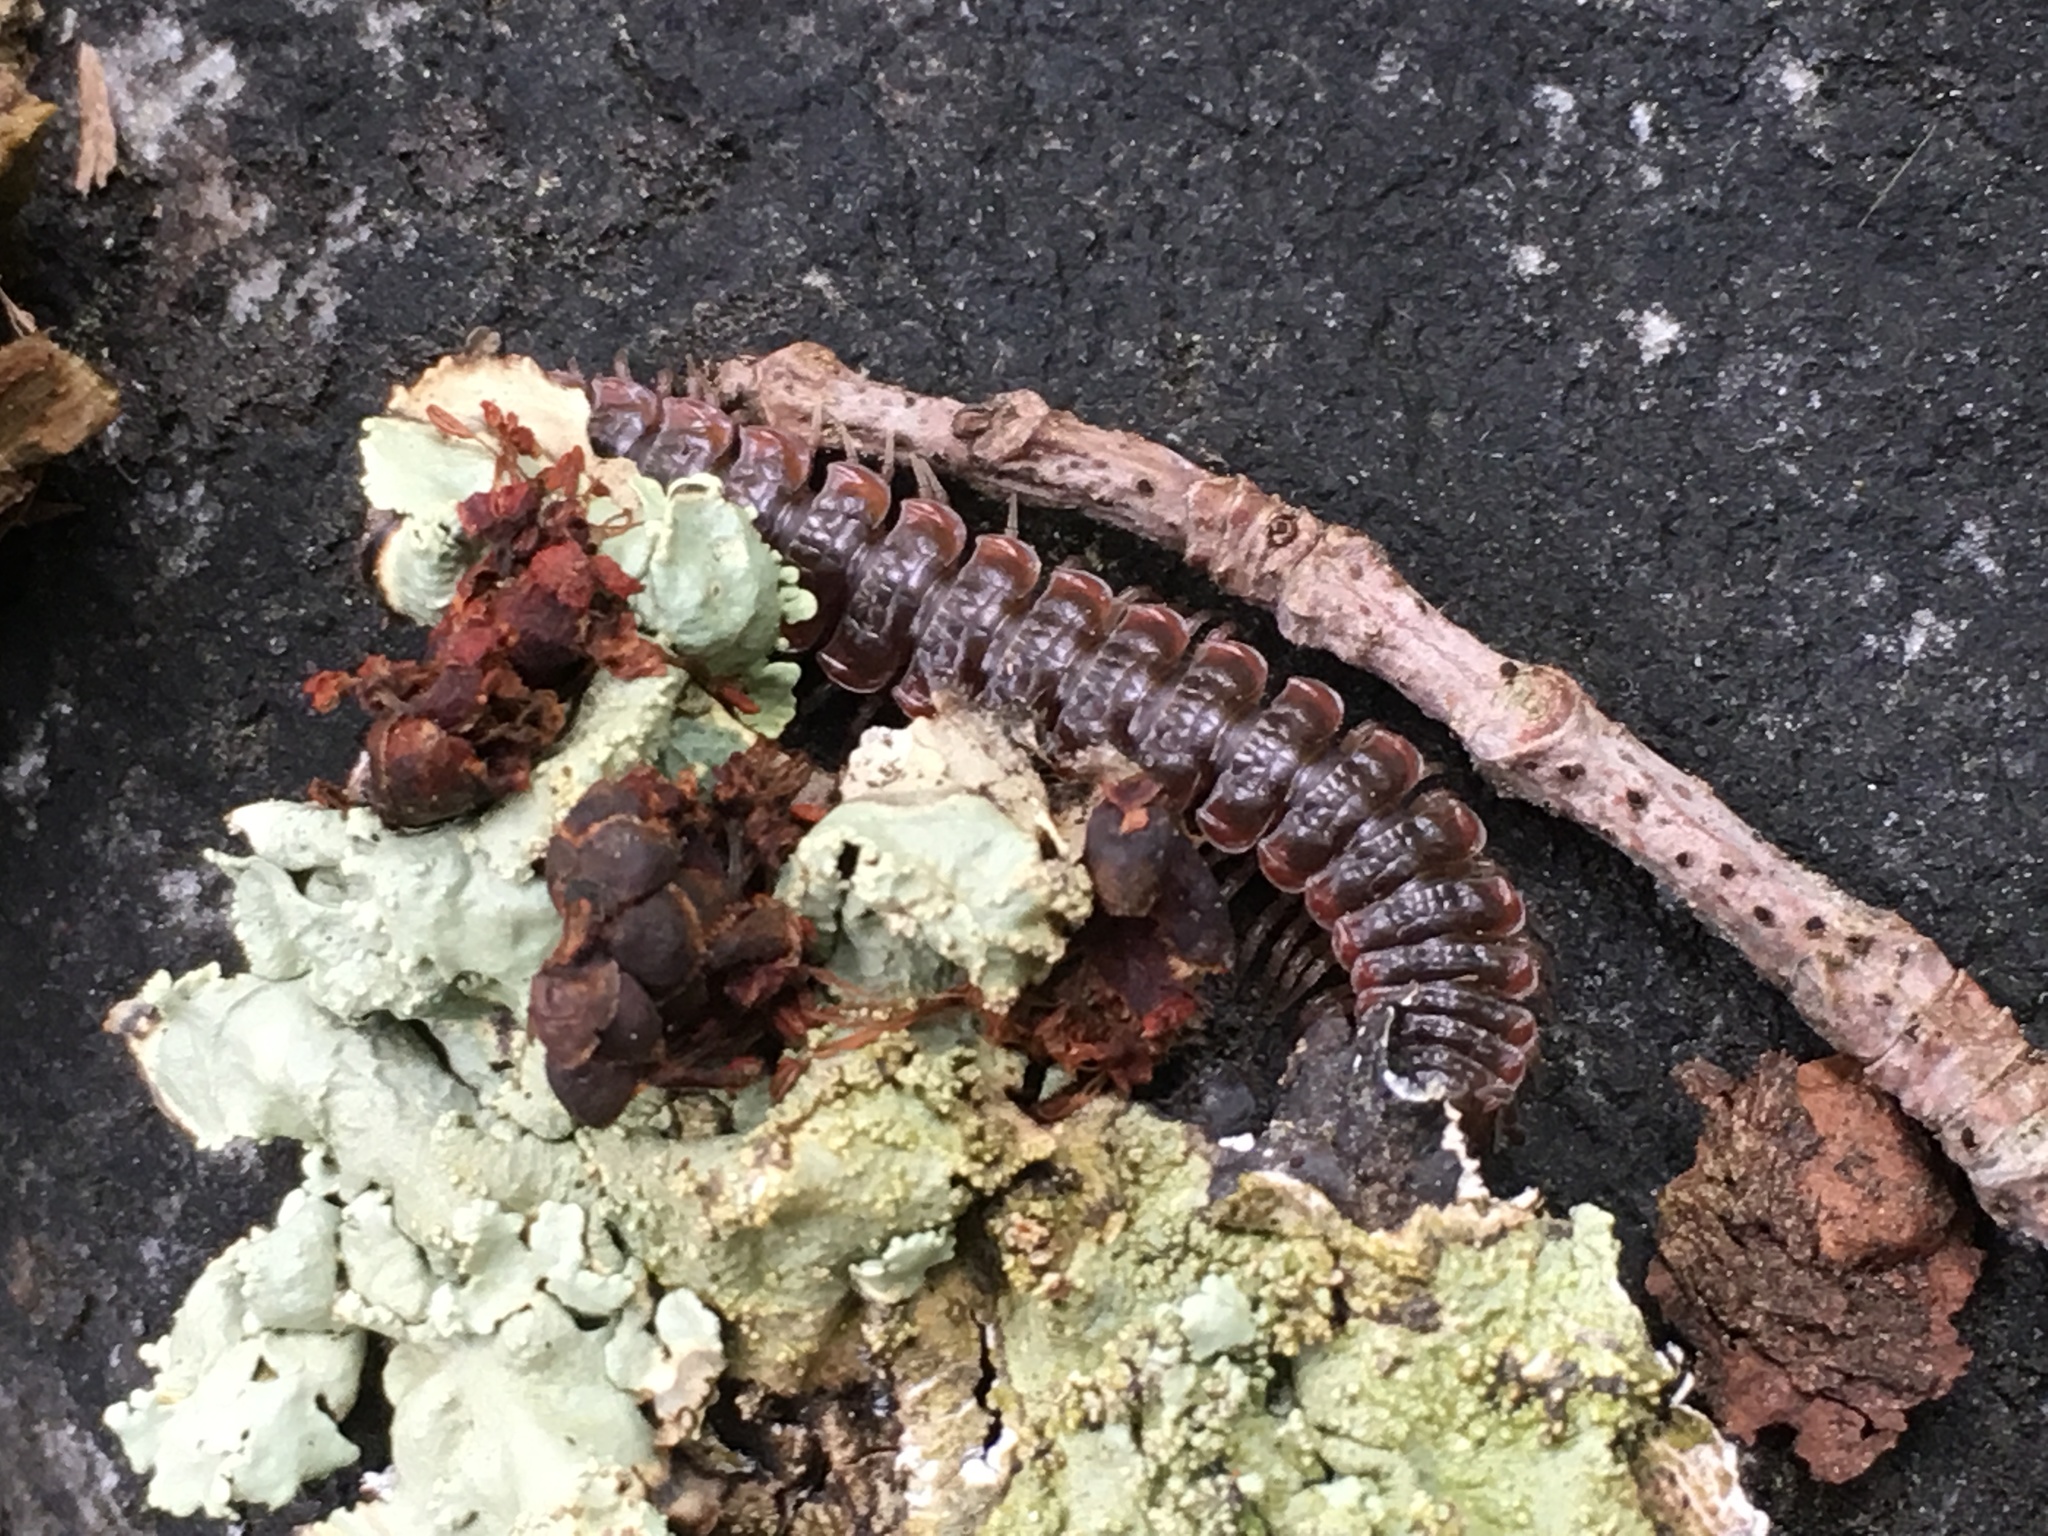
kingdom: Animalia
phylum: Arthropoda
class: Diplopoda
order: Polydesmida
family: Polydesmidae
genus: Pseudopolydesmus
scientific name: Pseudopolydesmus serratus
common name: Common pink flat-back millipede
